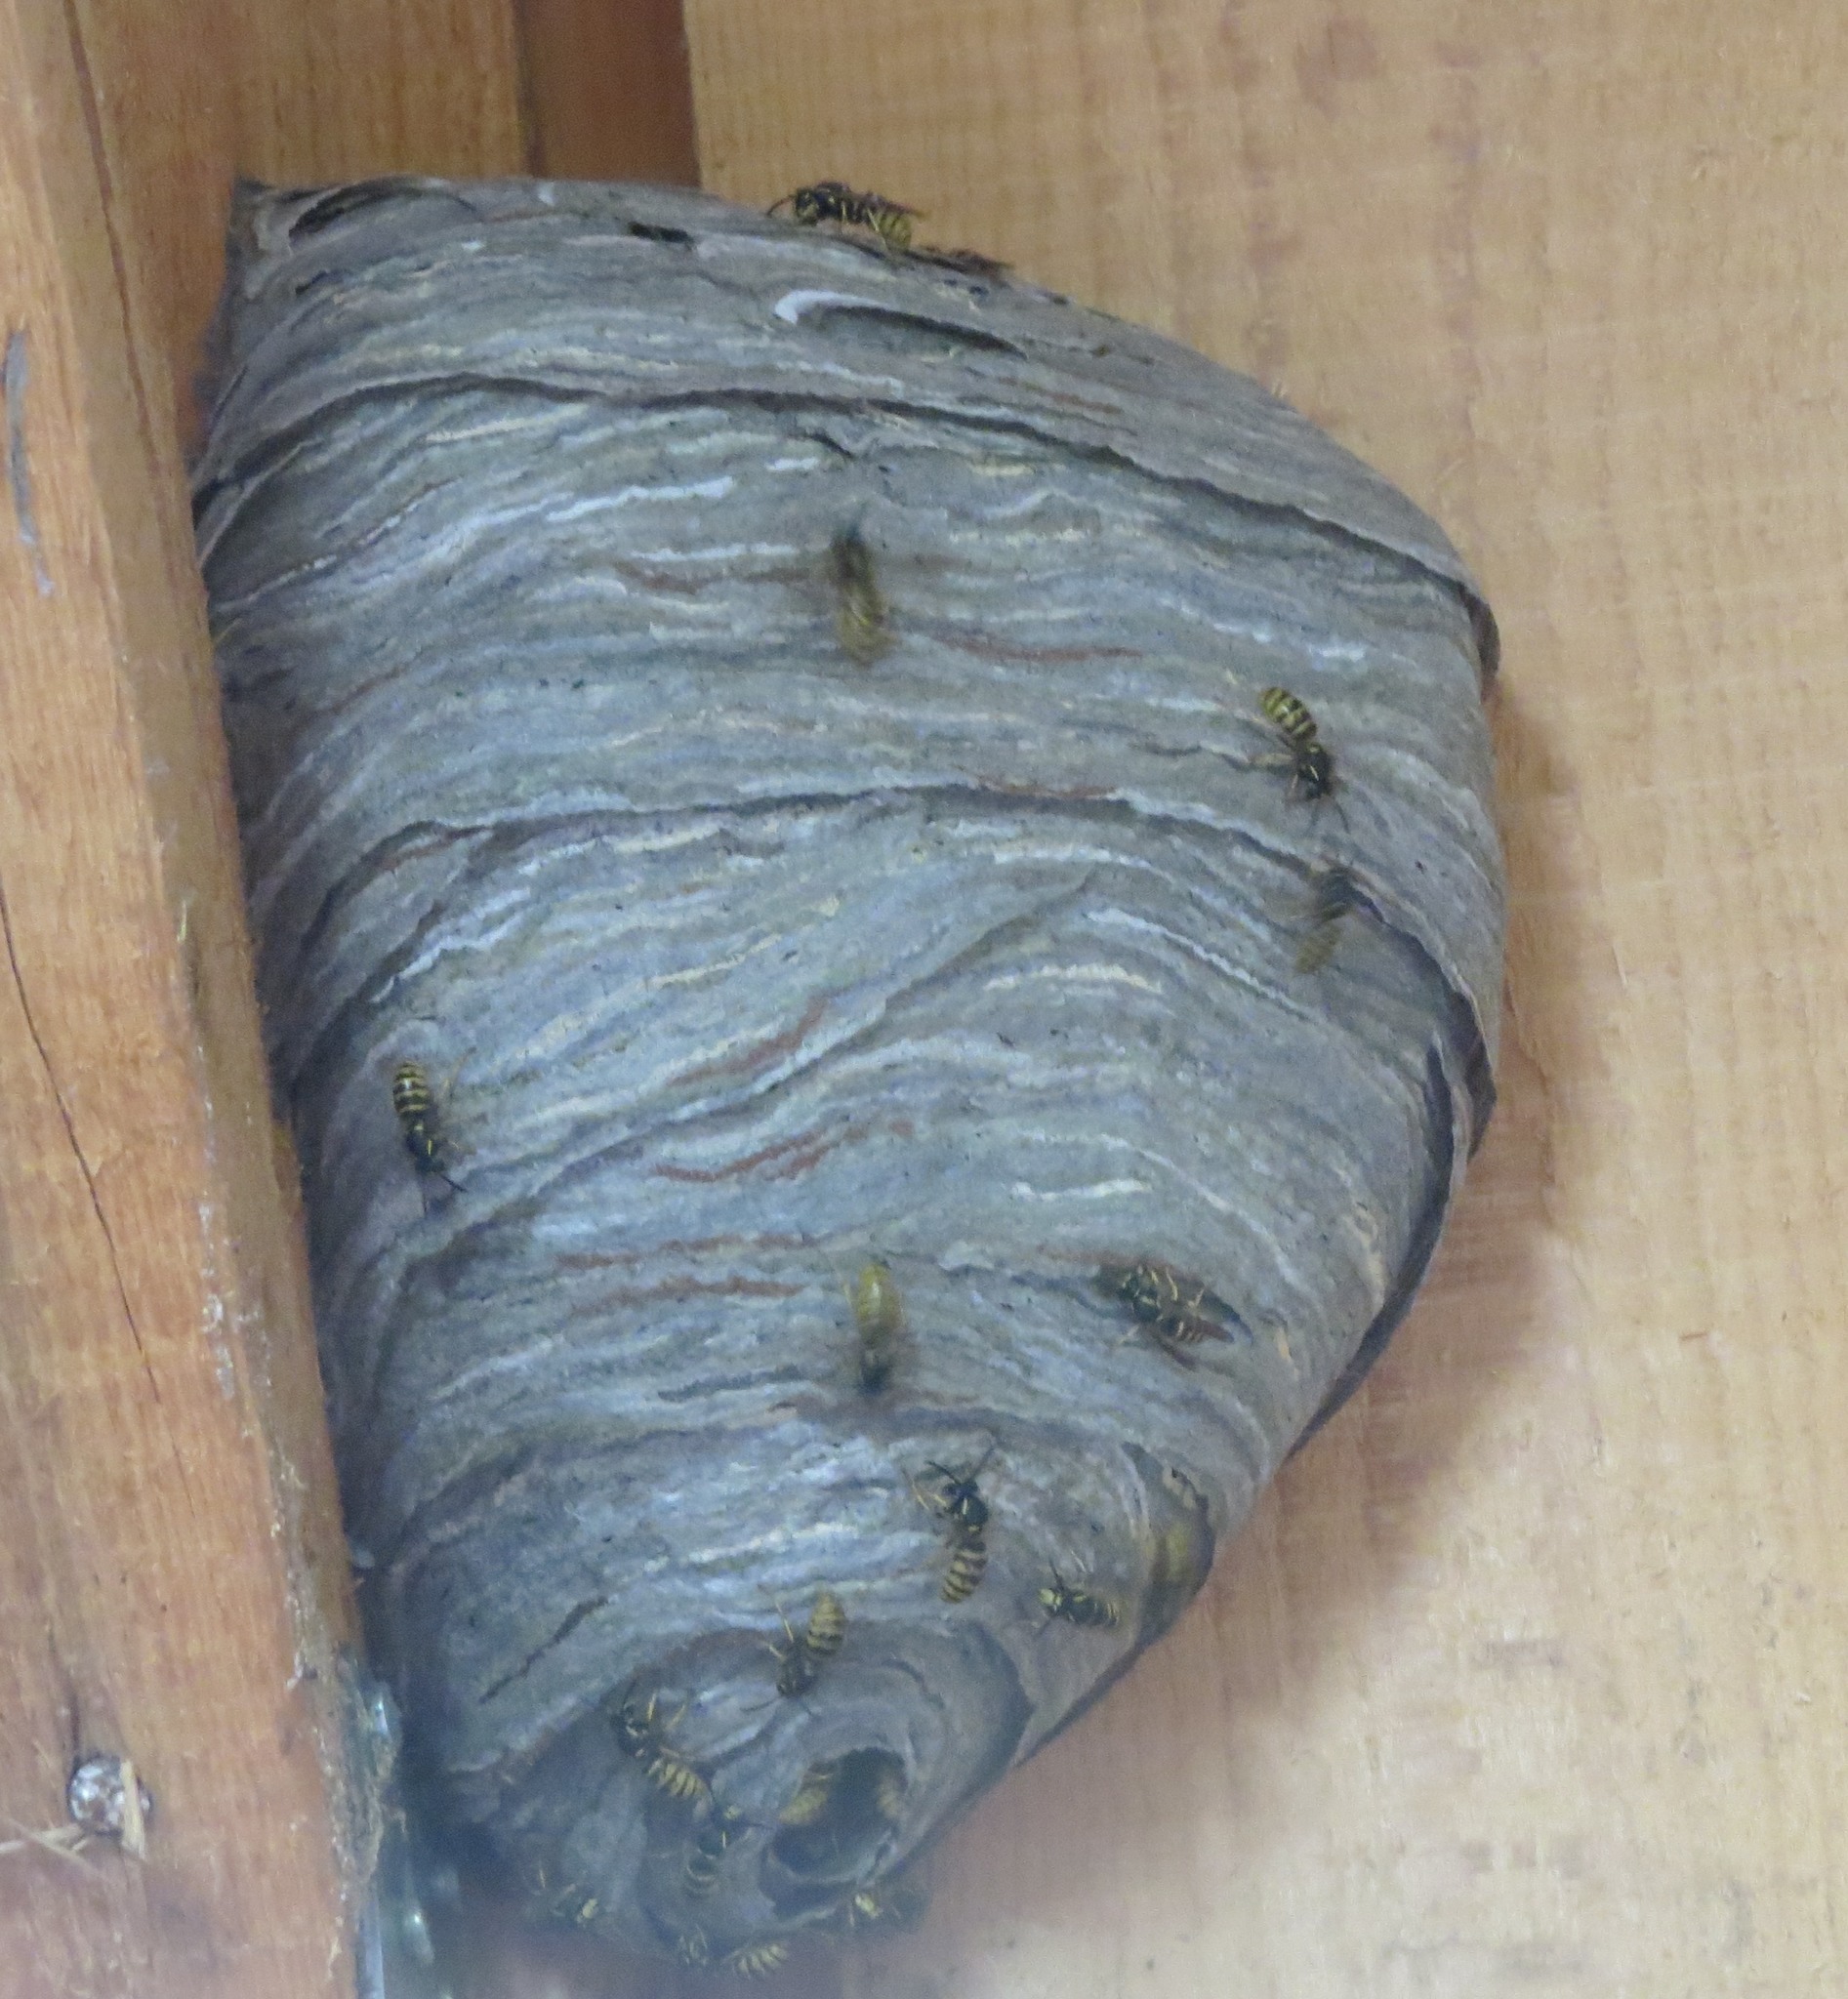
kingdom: Animalia
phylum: Arthropoda
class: Insecta
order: Hymenoptera
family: Vespidae
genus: Dolichovespula
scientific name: Dolichovespula saxonica
